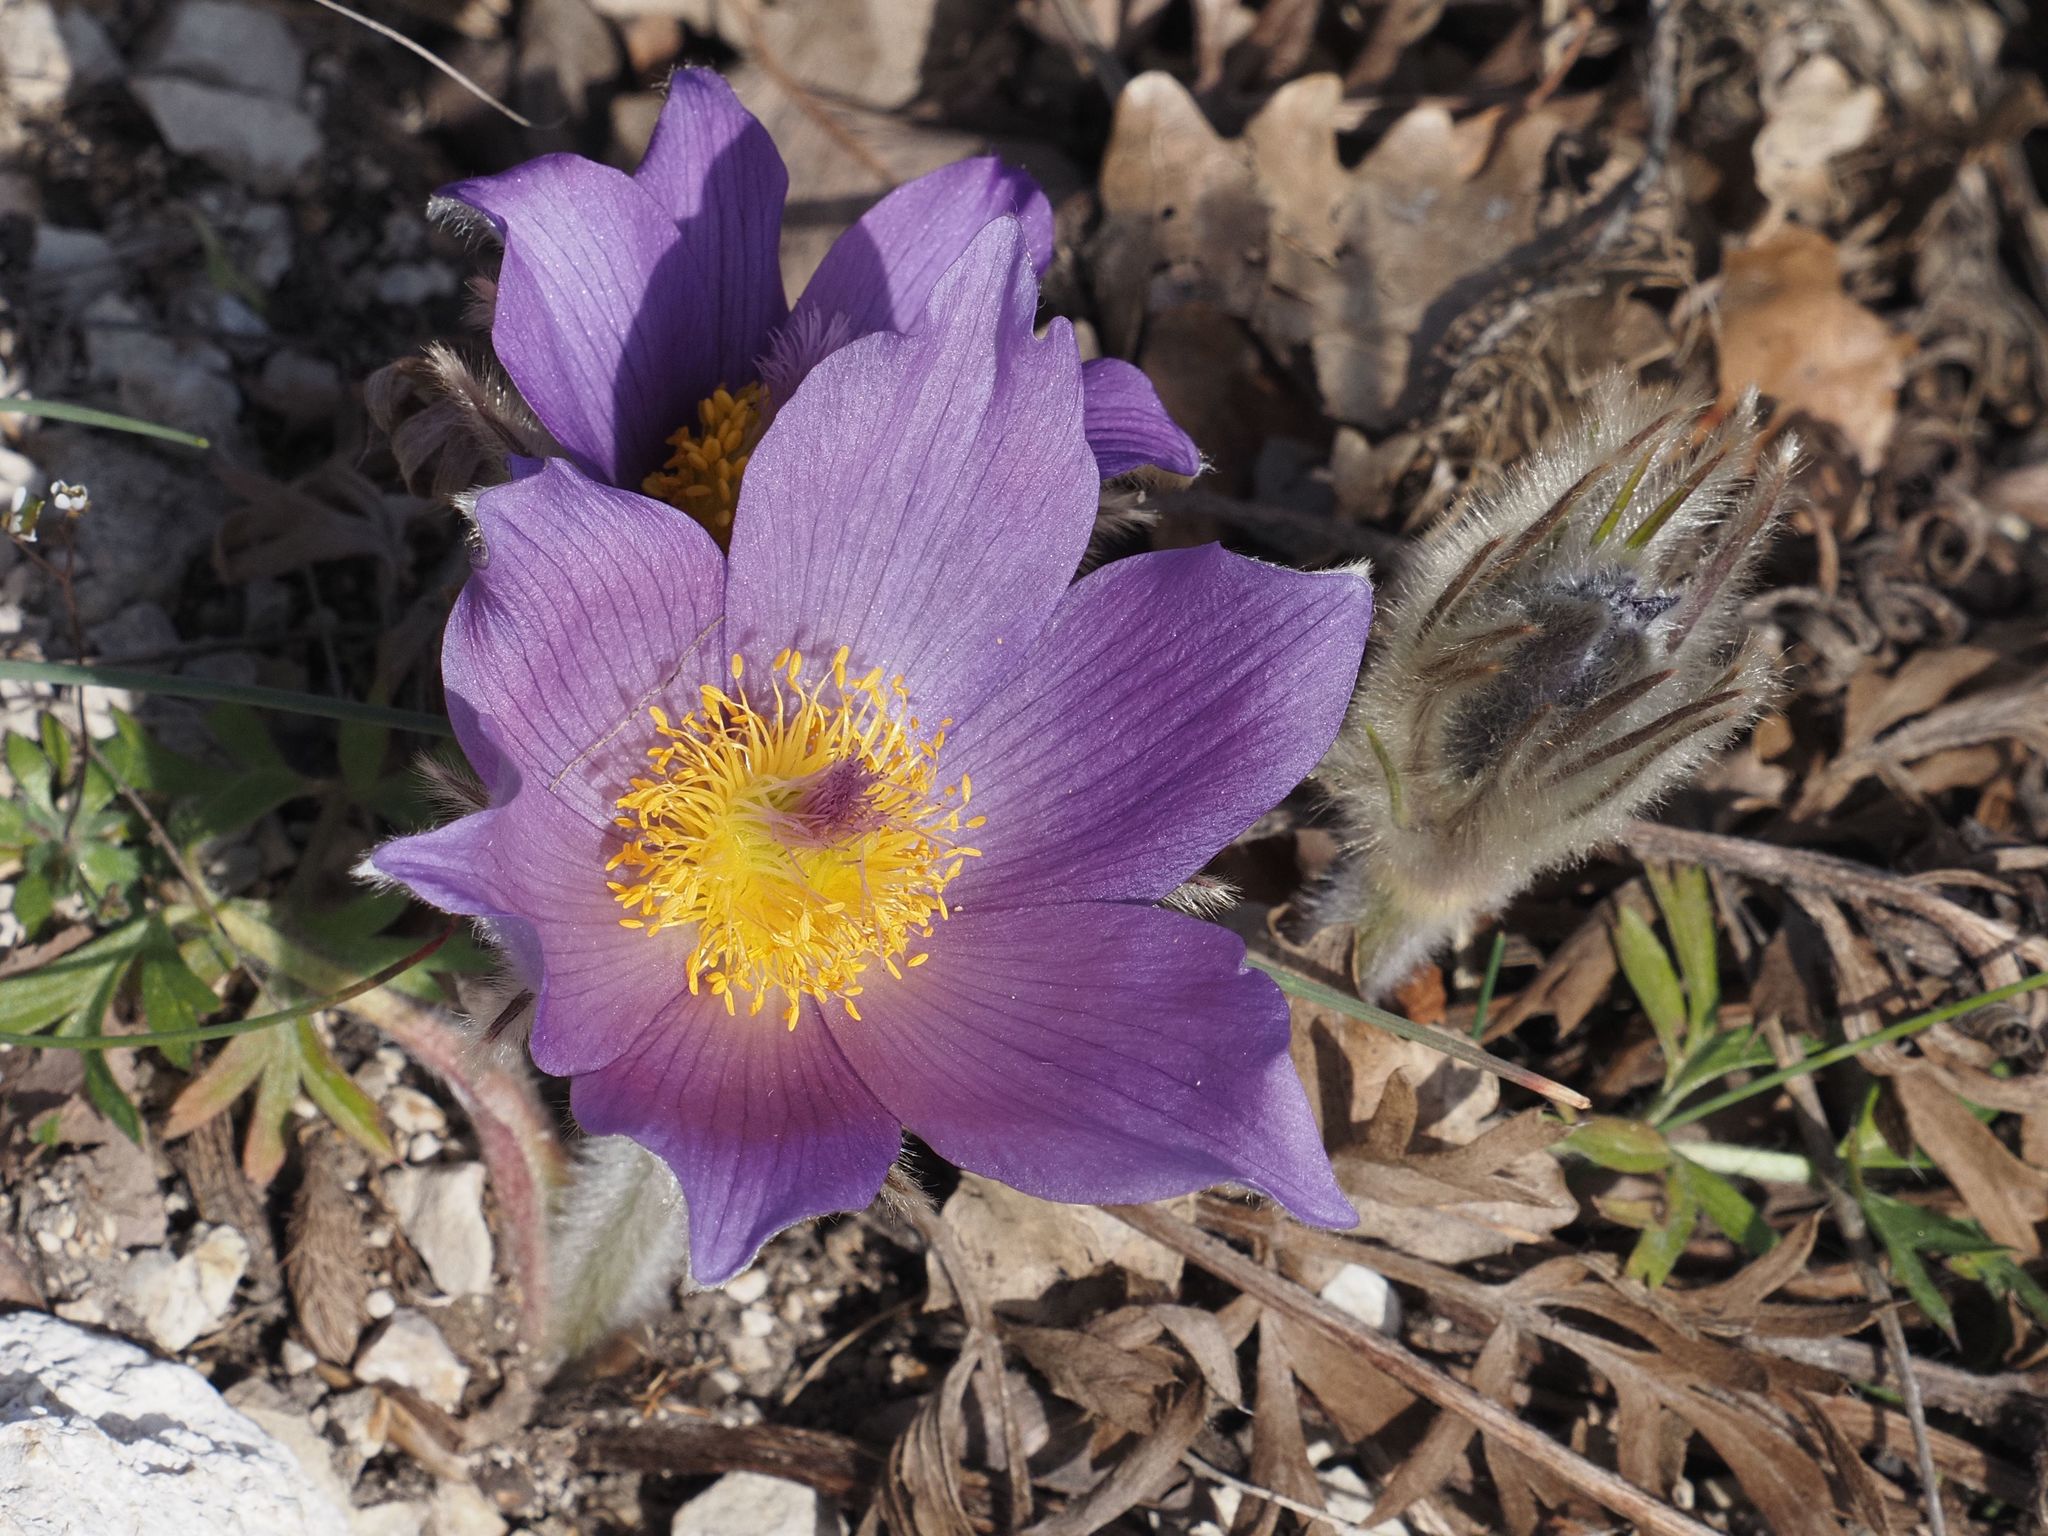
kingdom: Plantae
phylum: Tracheophyta
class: Magnoliopsida
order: Ranunculales
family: Ranunculaceae
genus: Pulsatilla
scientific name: Pulsatilla grandis
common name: Greater pasque flower
